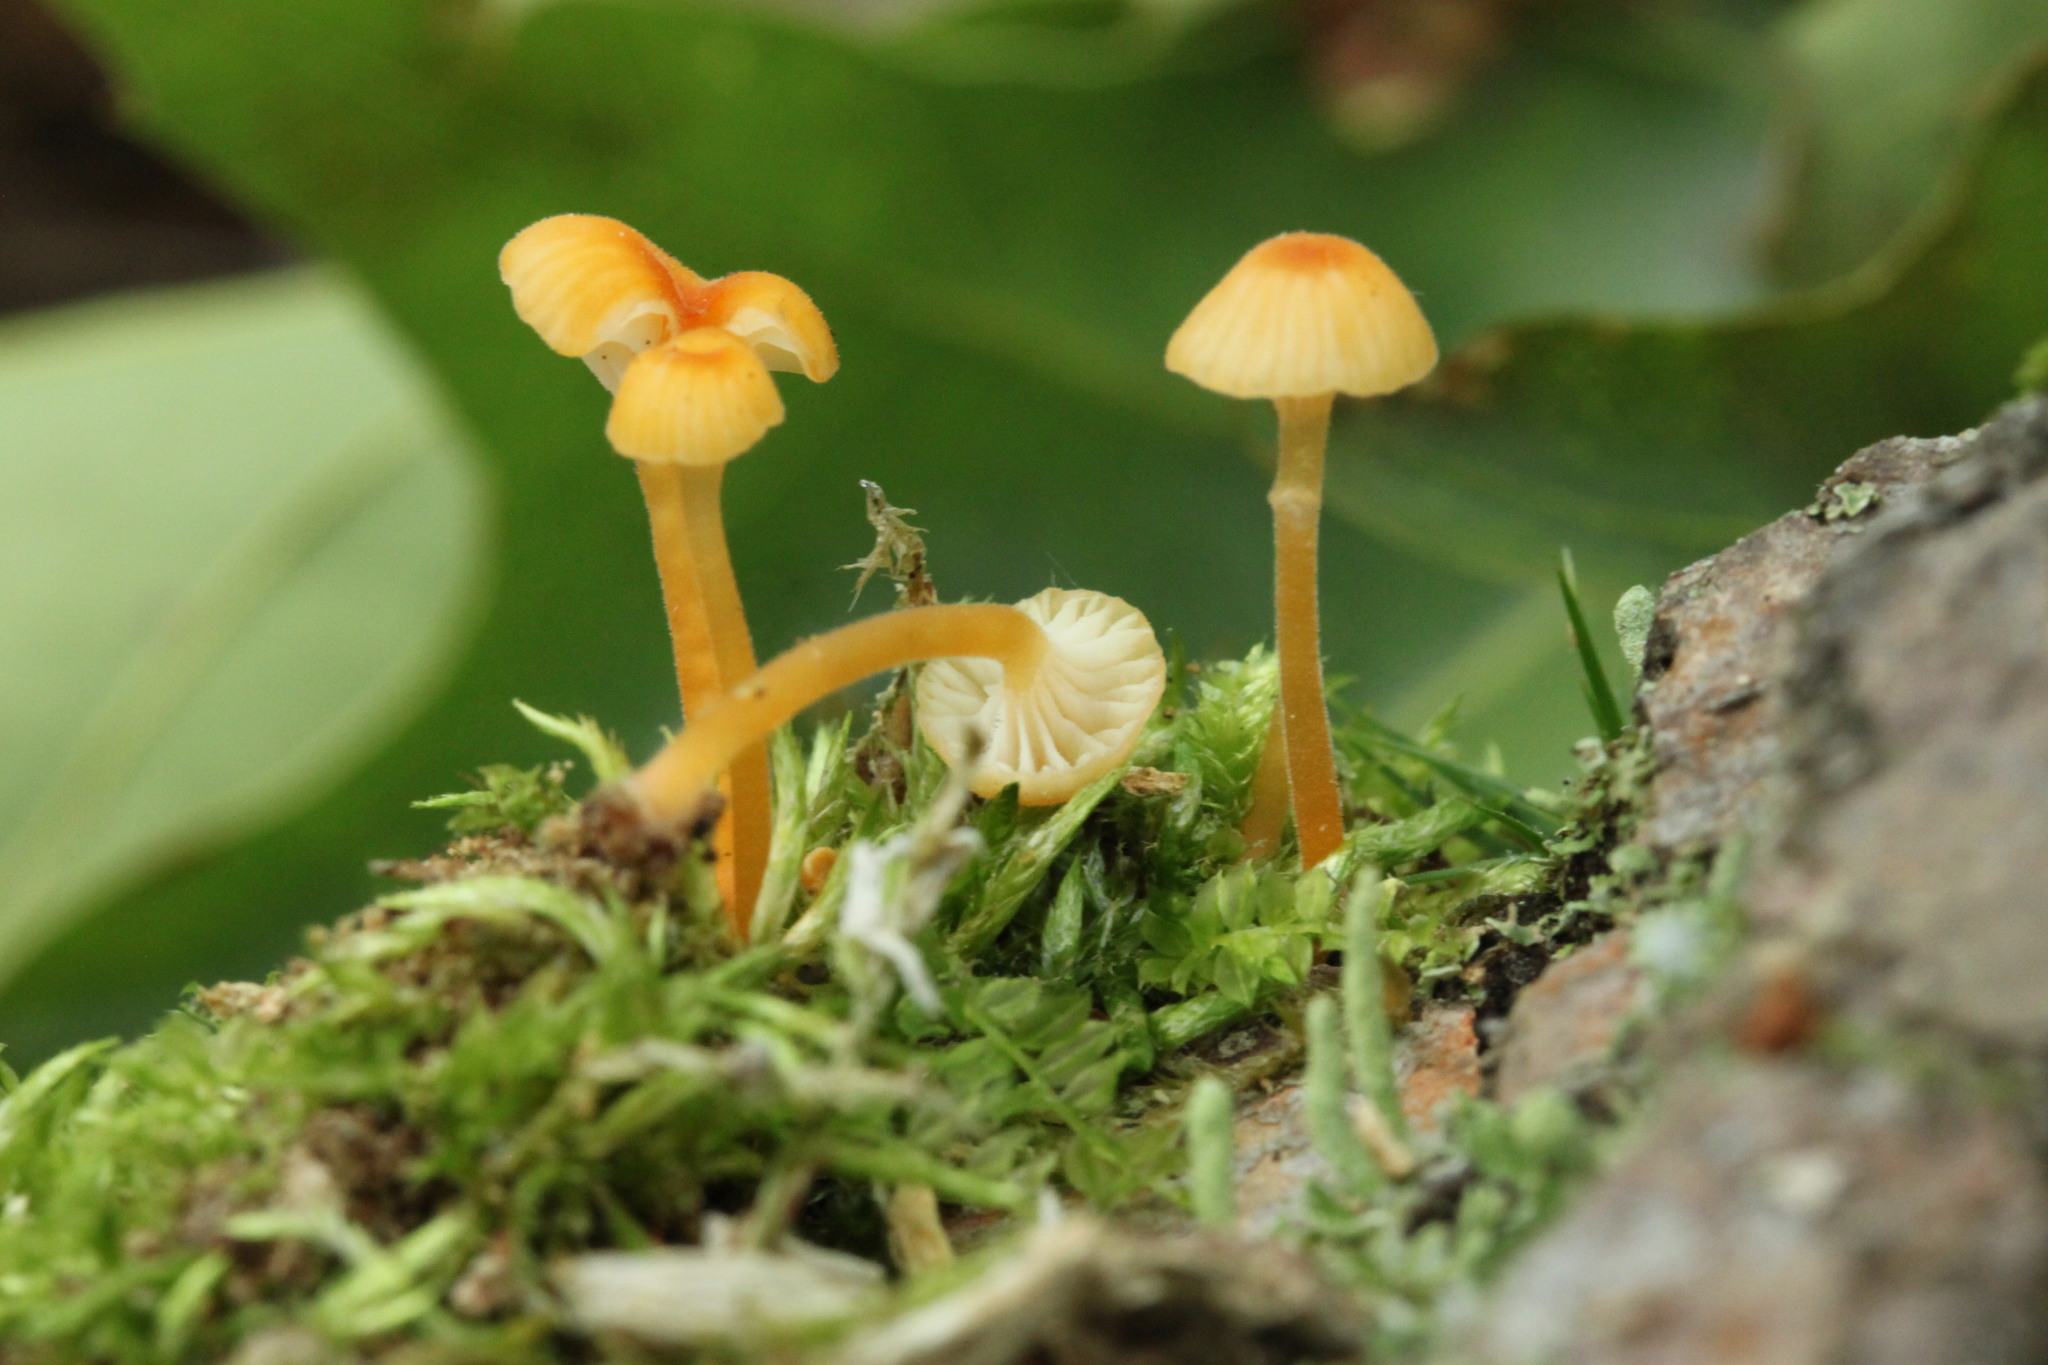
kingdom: Fungi
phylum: Basidiomycota
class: Agaricomycetes
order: Hymenochaetales
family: Rickenellaceae
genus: Rickenella
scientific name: Rickenella fibula
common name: Orange mosscap
